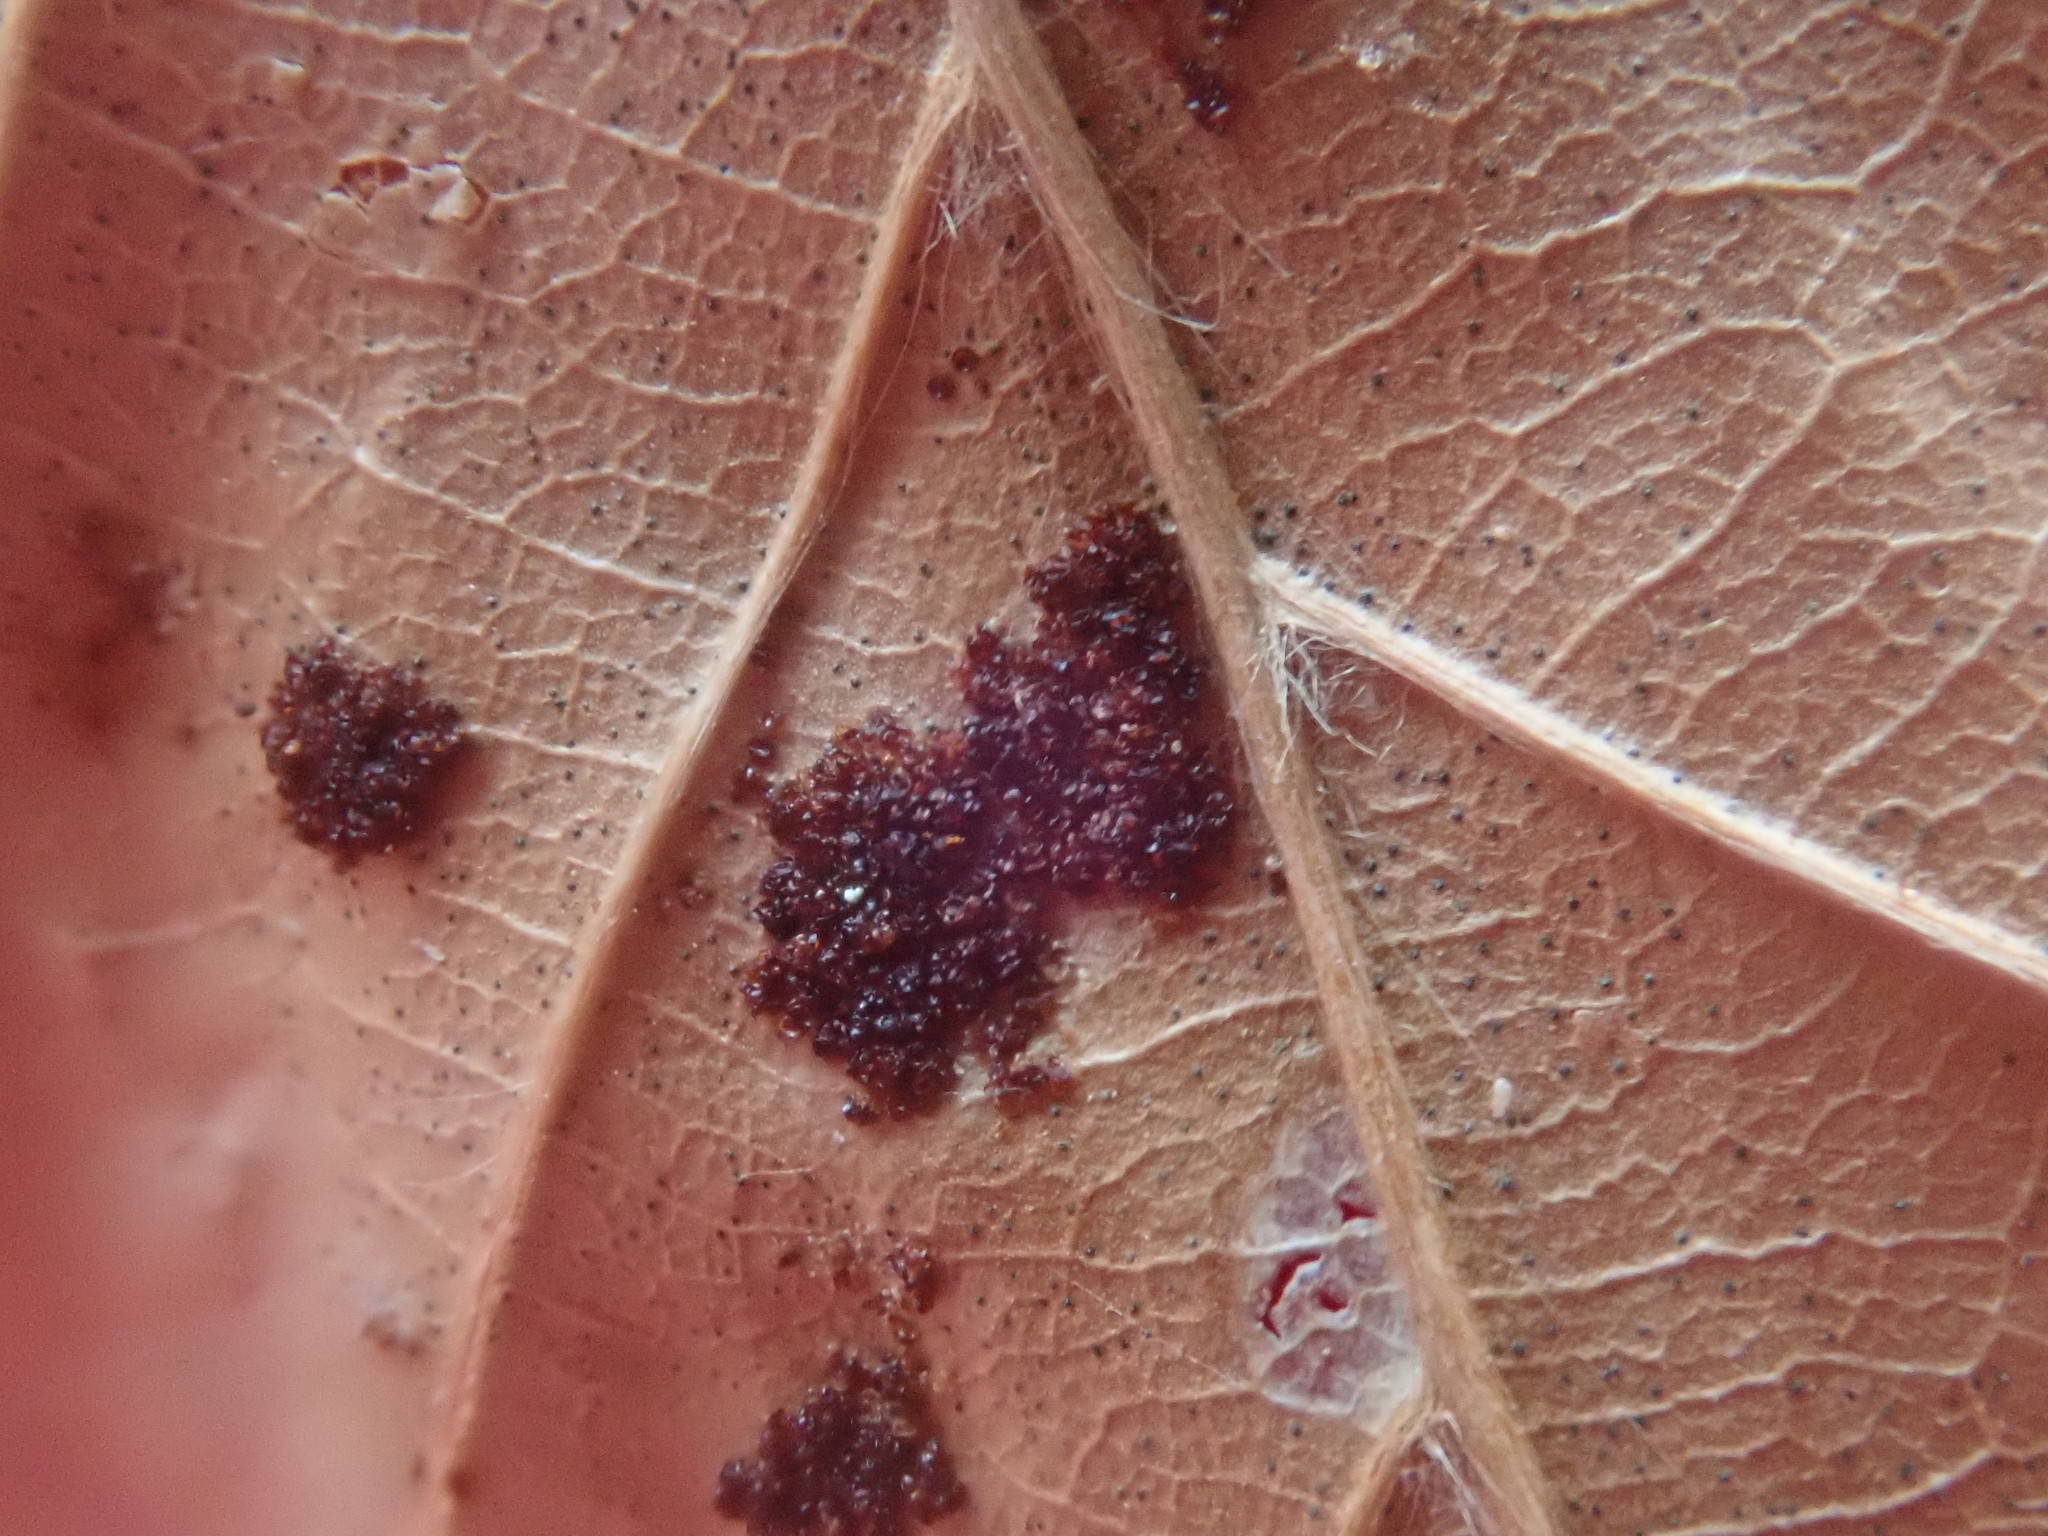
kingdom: Animalia
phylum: Arthropoda
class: Arachnida
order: Trombidiformes
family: Eriophyidae
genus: Acalitus
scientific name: Acalitus
